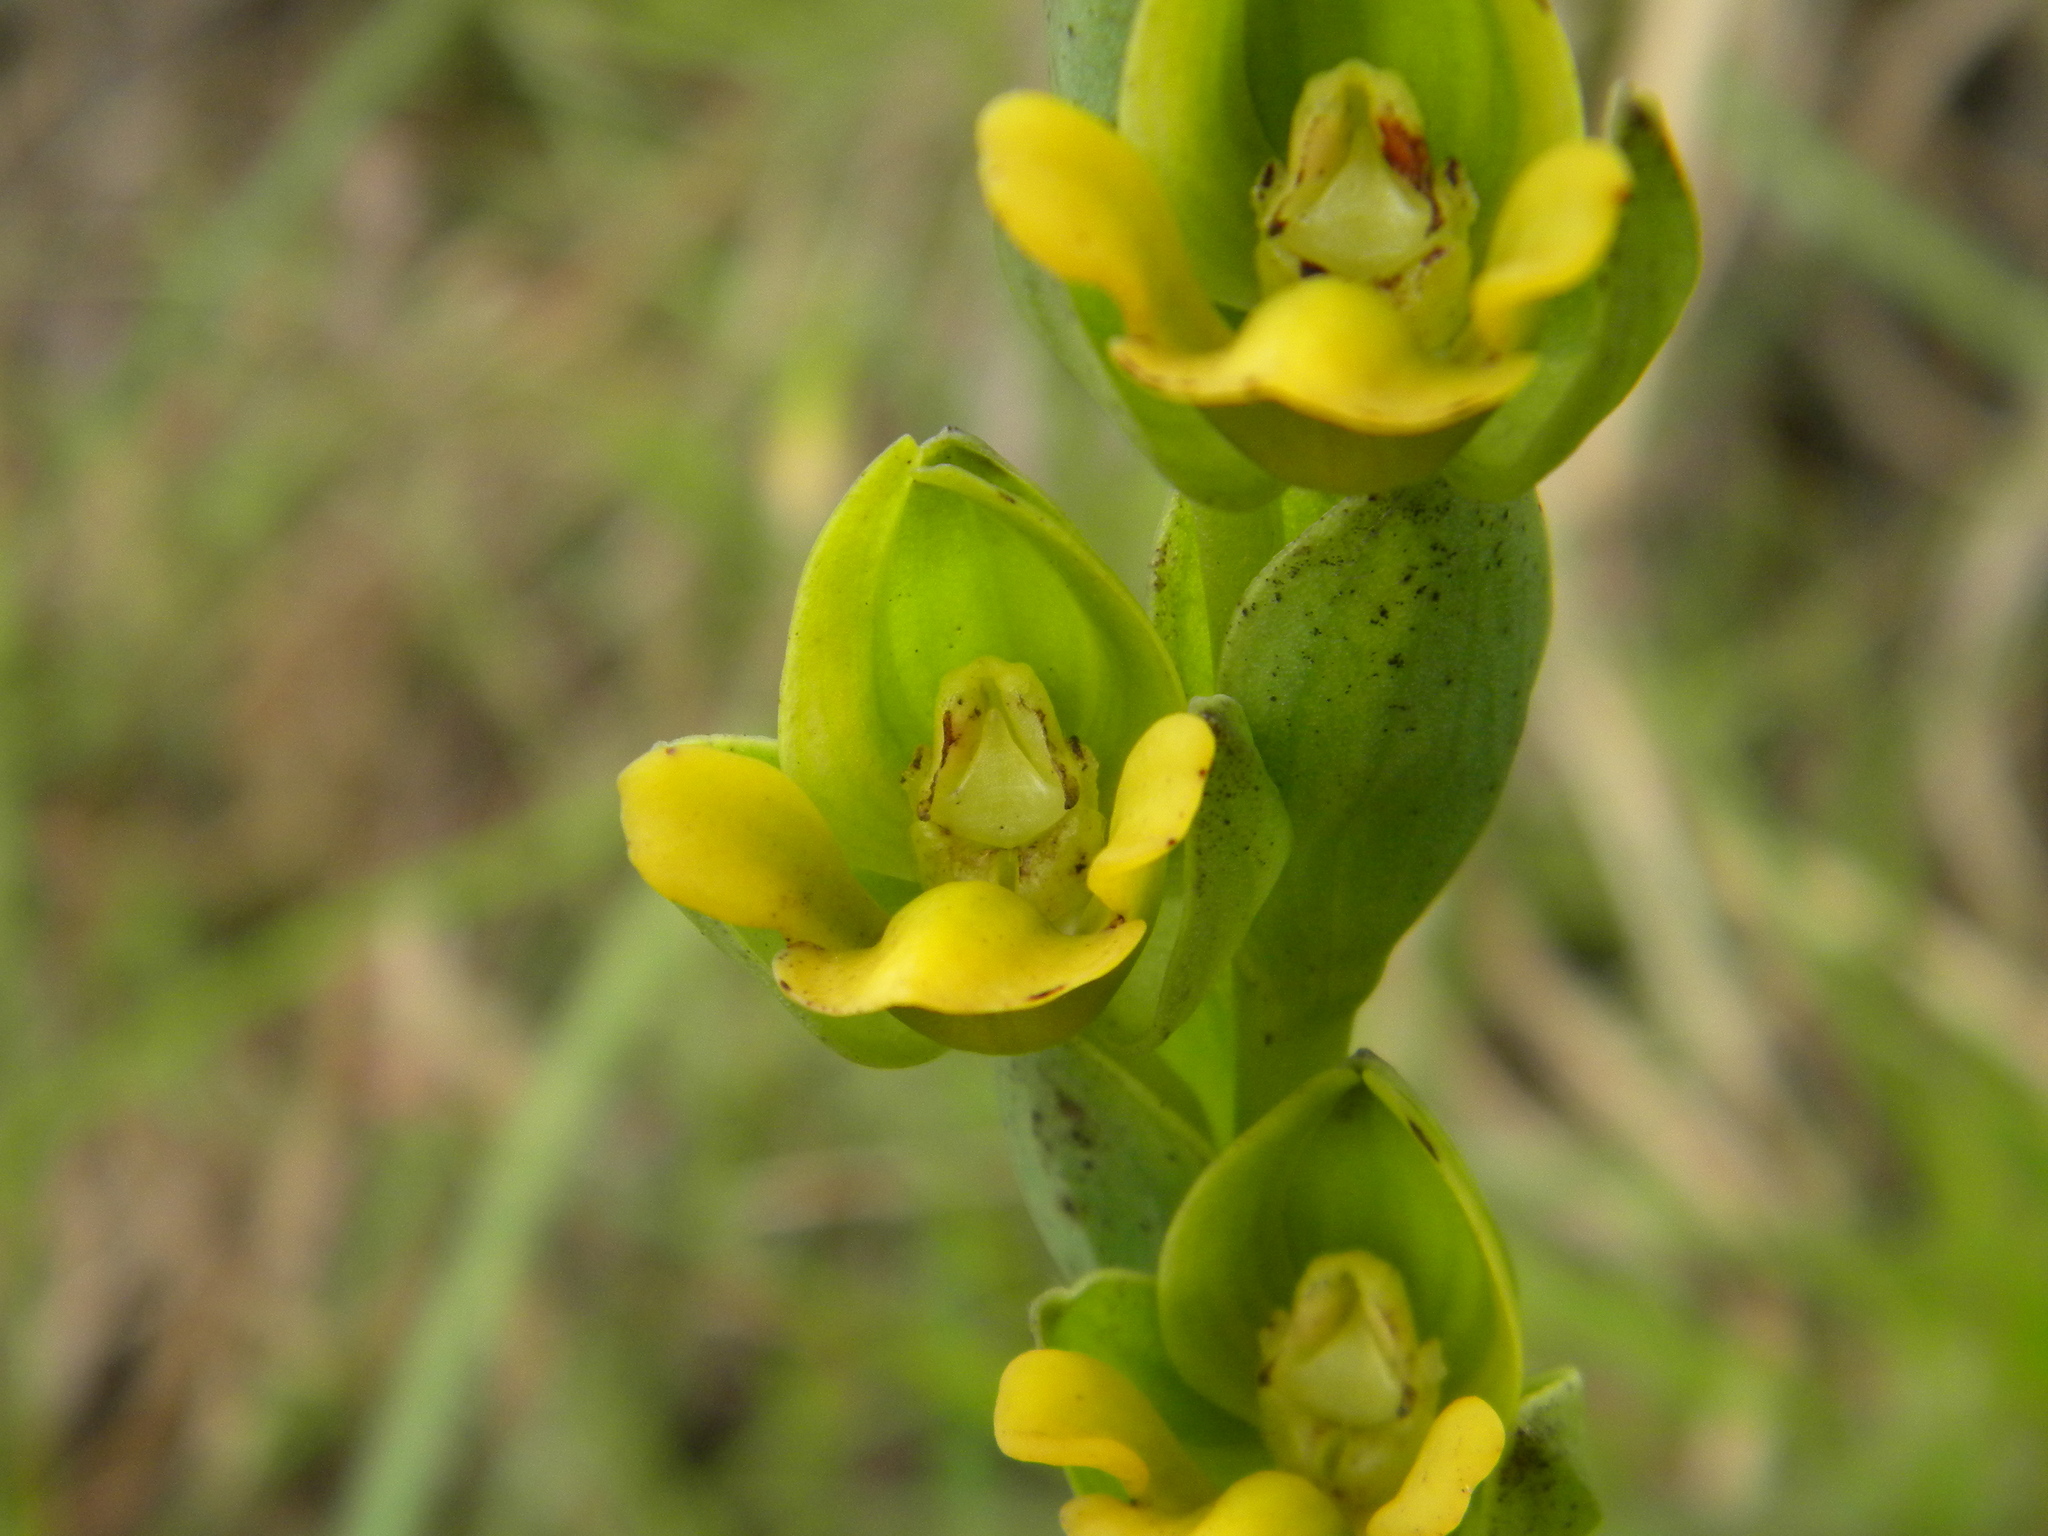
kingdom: Plantae
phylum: Tracheophyta
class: Liliopsida
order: Asparagales
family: Orchidaceae
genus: Habenaria
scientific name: Habenaria perrottetiana
